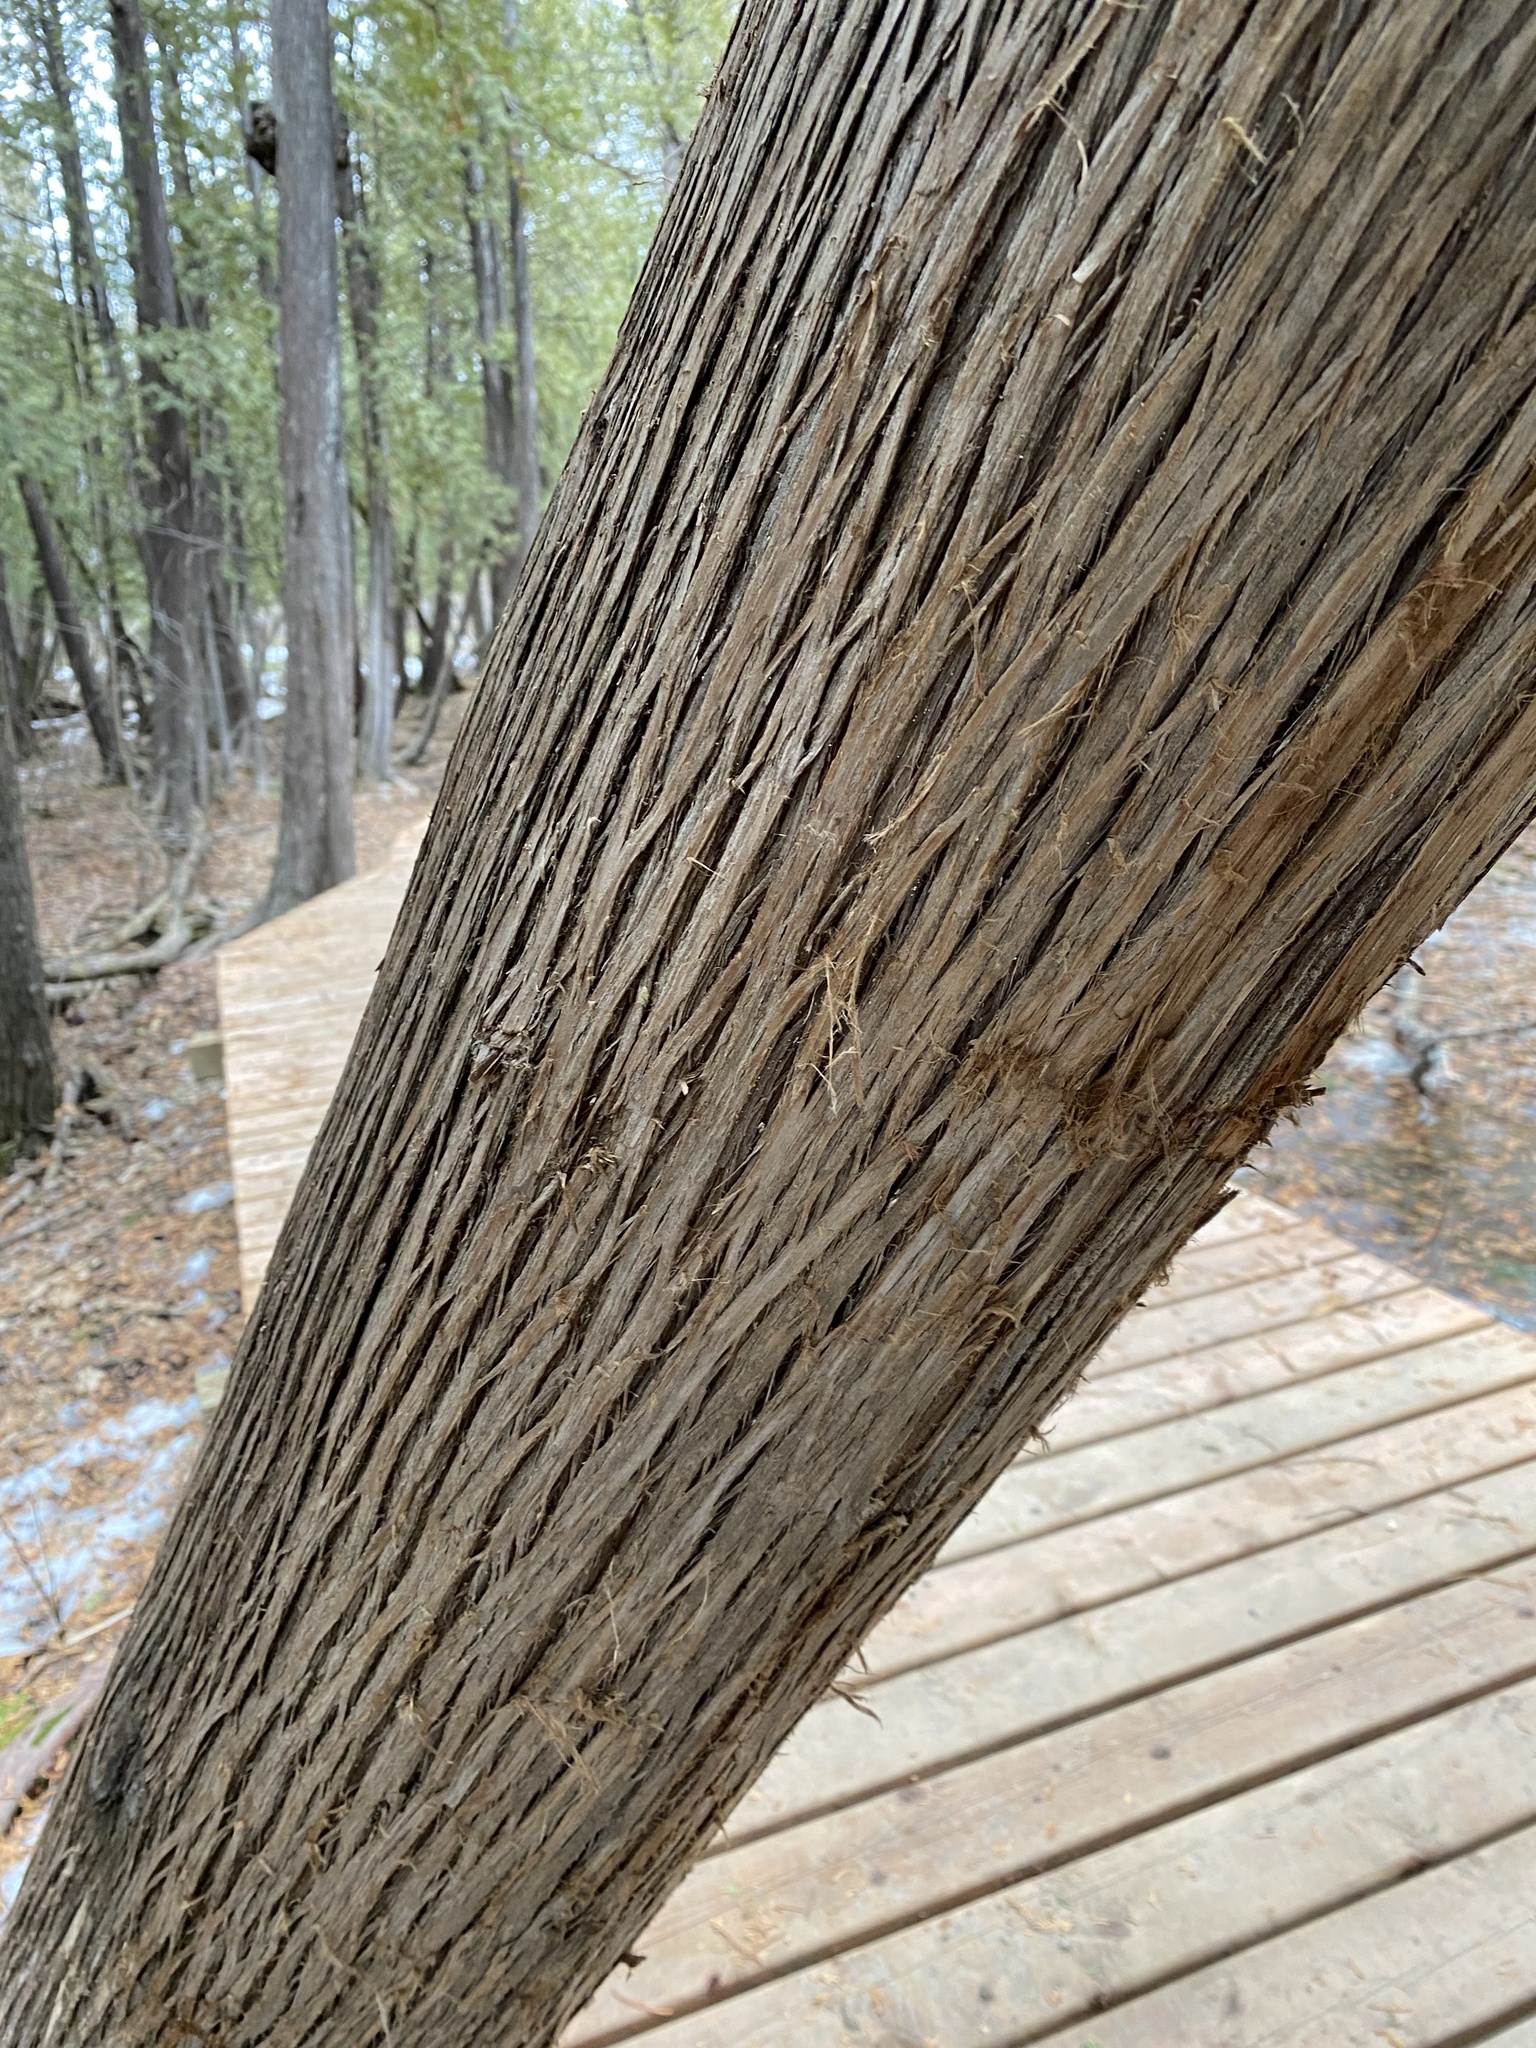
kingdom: Plantae
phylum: Tracheophyta
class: Pinopsida
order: Pinales
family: Cupressaceae
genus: Thuja
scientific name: Thuja occidentalis
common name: Northern white-cedar
